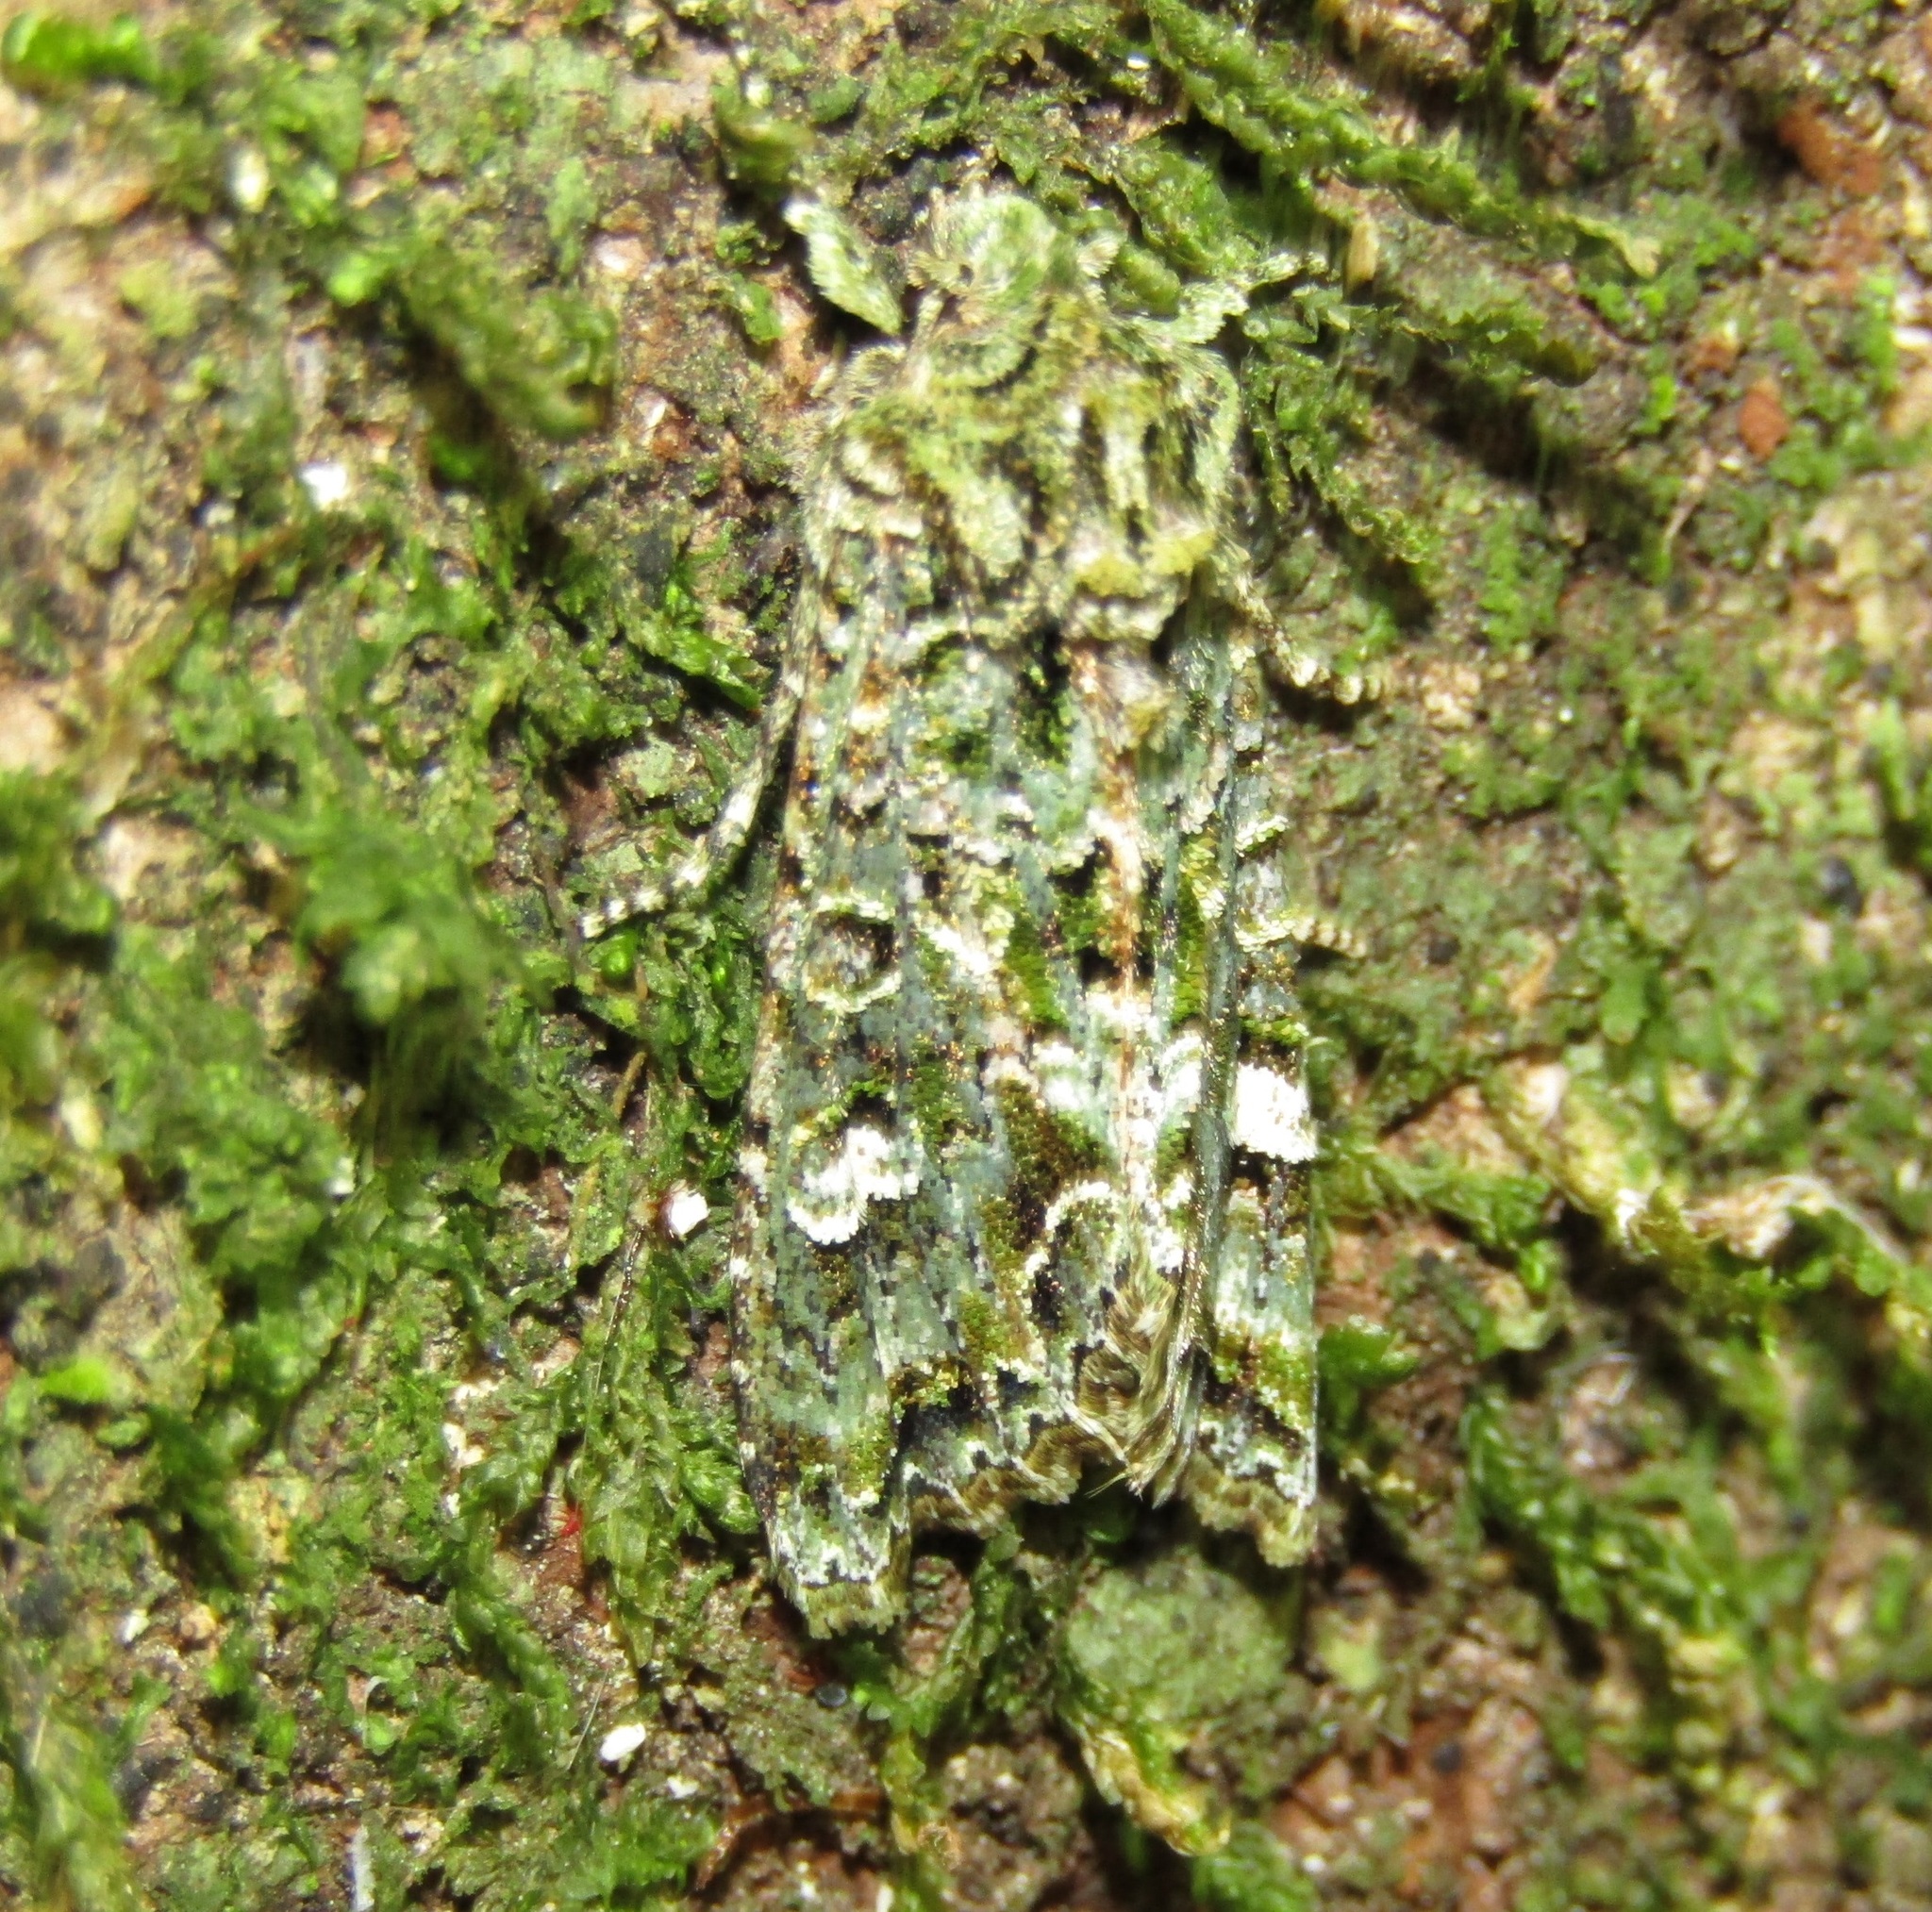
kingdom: Animalia
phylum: Arthropoda
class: Insecta
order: Lepidoptera
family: Noctuidae
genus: Ichneutica
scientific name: Ichneutica
